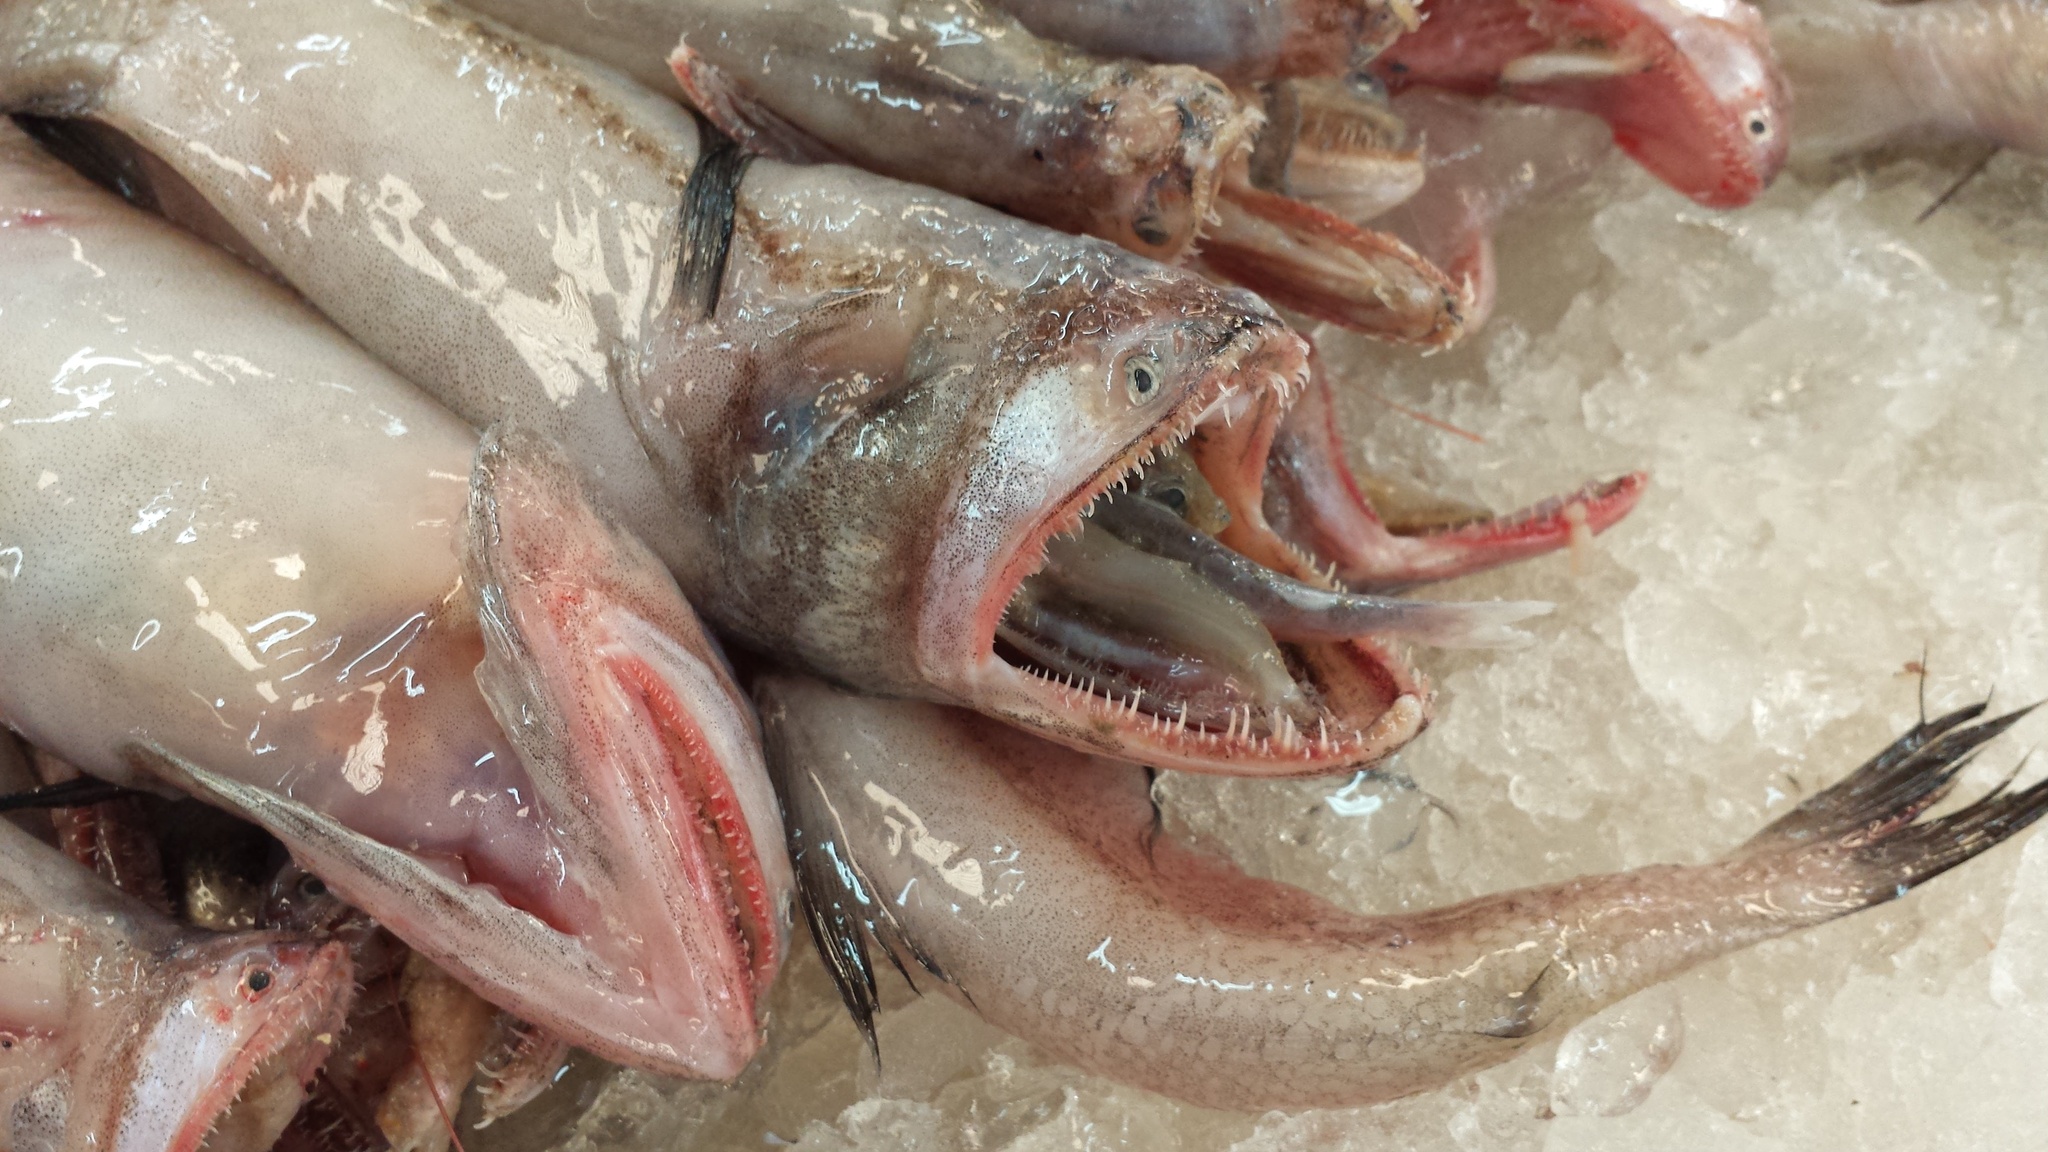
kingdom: Animalia
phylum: Chordata
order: Aulopiformes
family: Synodontidae
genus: Harpadon
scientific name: Harpadon nehereus
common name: Bombay duck
